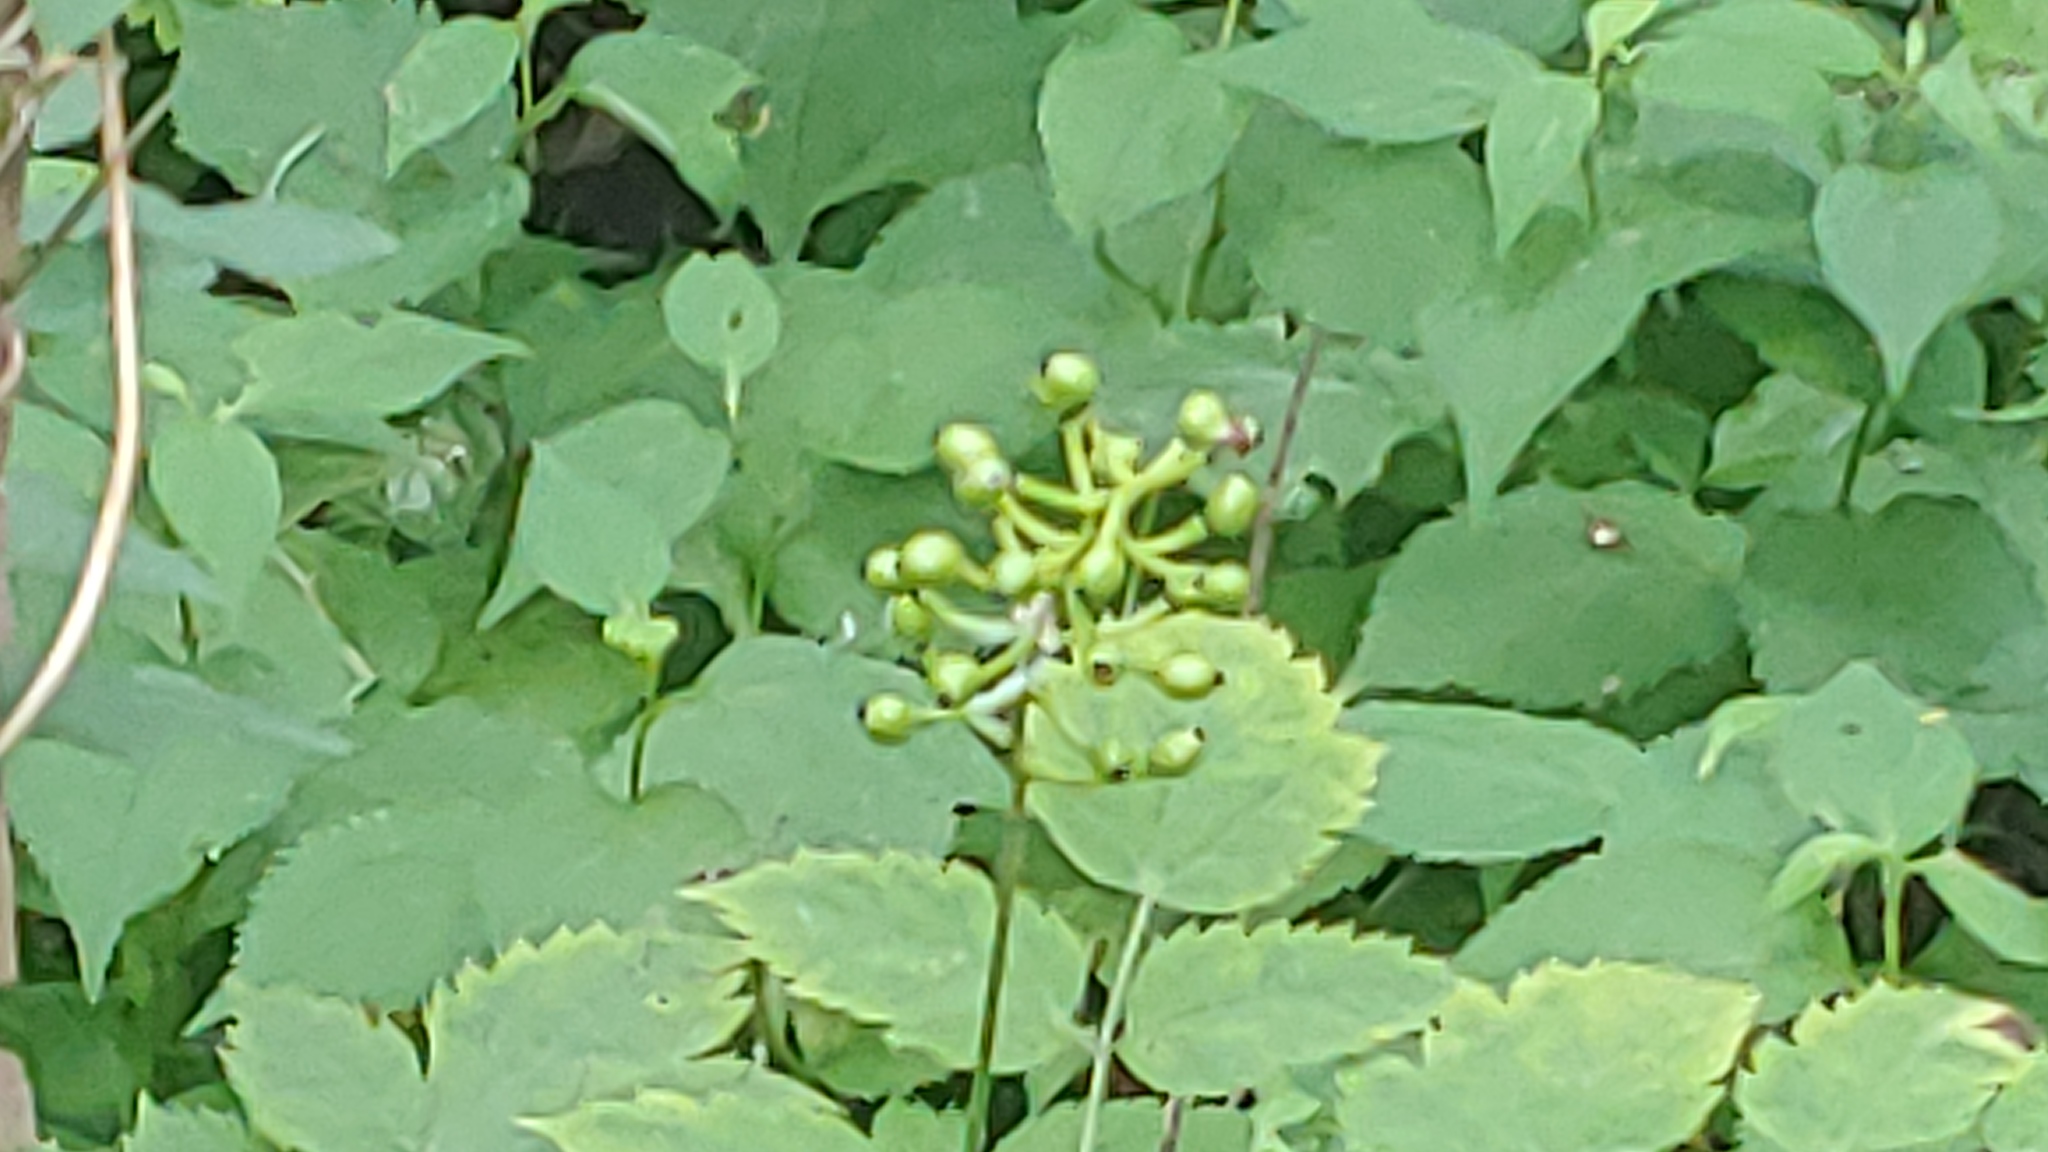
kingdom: Plantae
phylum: Tracheophyta
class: Magnoliopsida
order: Ranunculales
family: Ranunculaceae
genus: Actaea
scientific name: Actaea pachypoda
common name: Doll's-eyes
